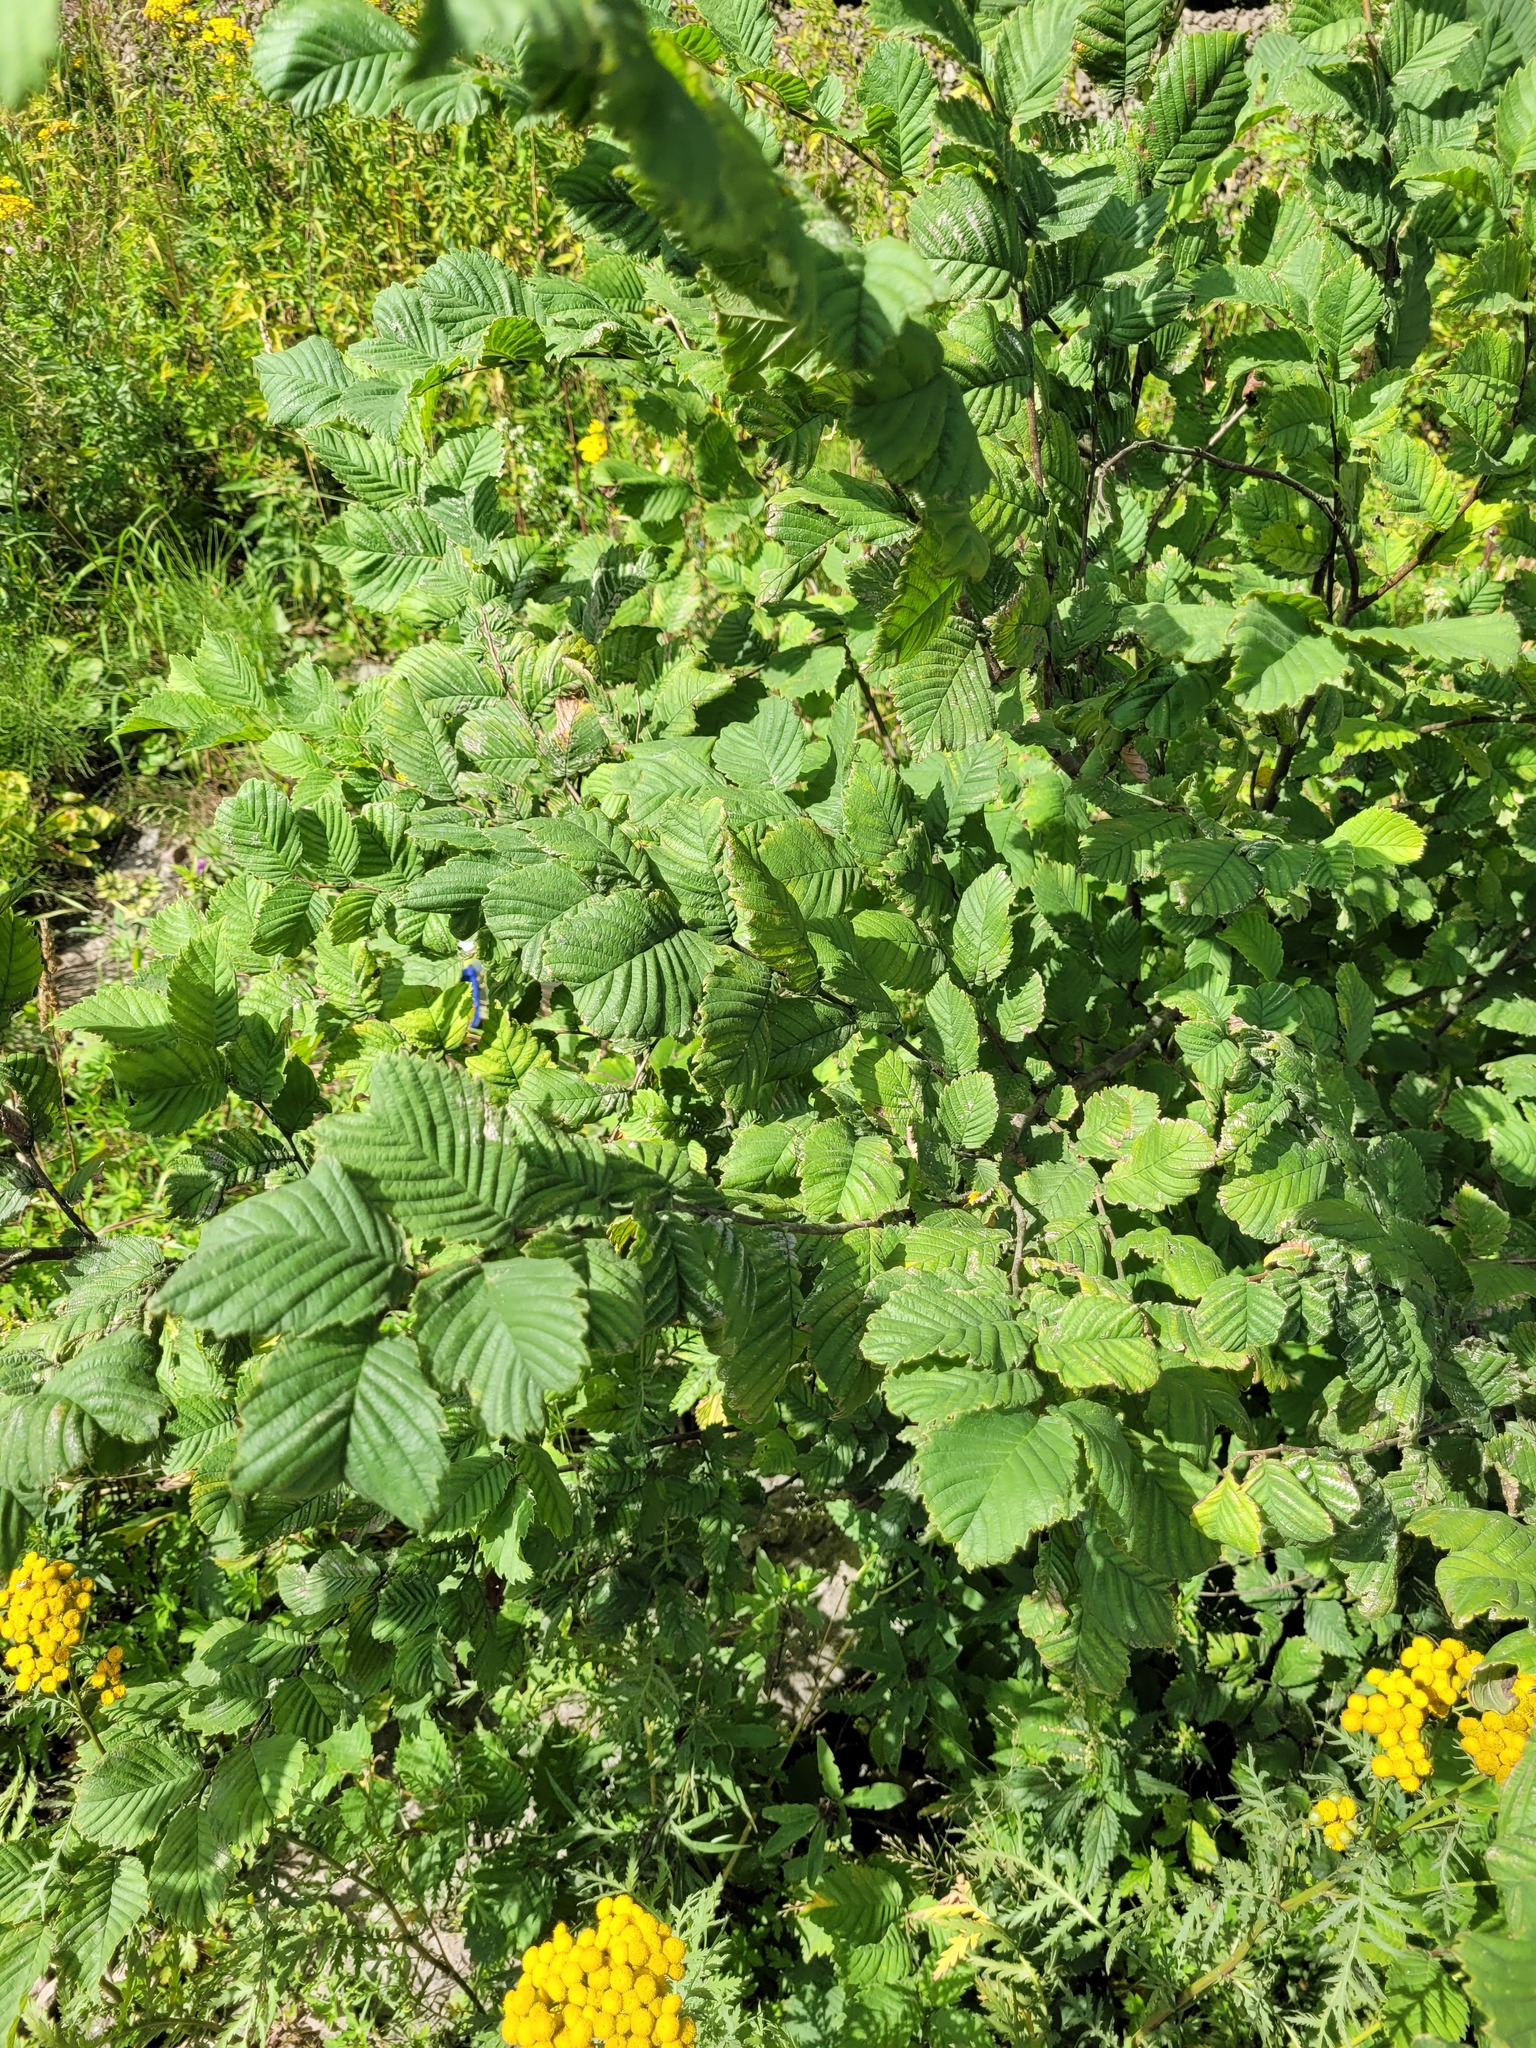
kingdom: Plantae
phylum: Tracheophyta
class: Magnoliopsida
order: Rosales
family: Ulmaceae
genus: Ulmus
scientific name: Ulmus laevis
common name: European white-elm
